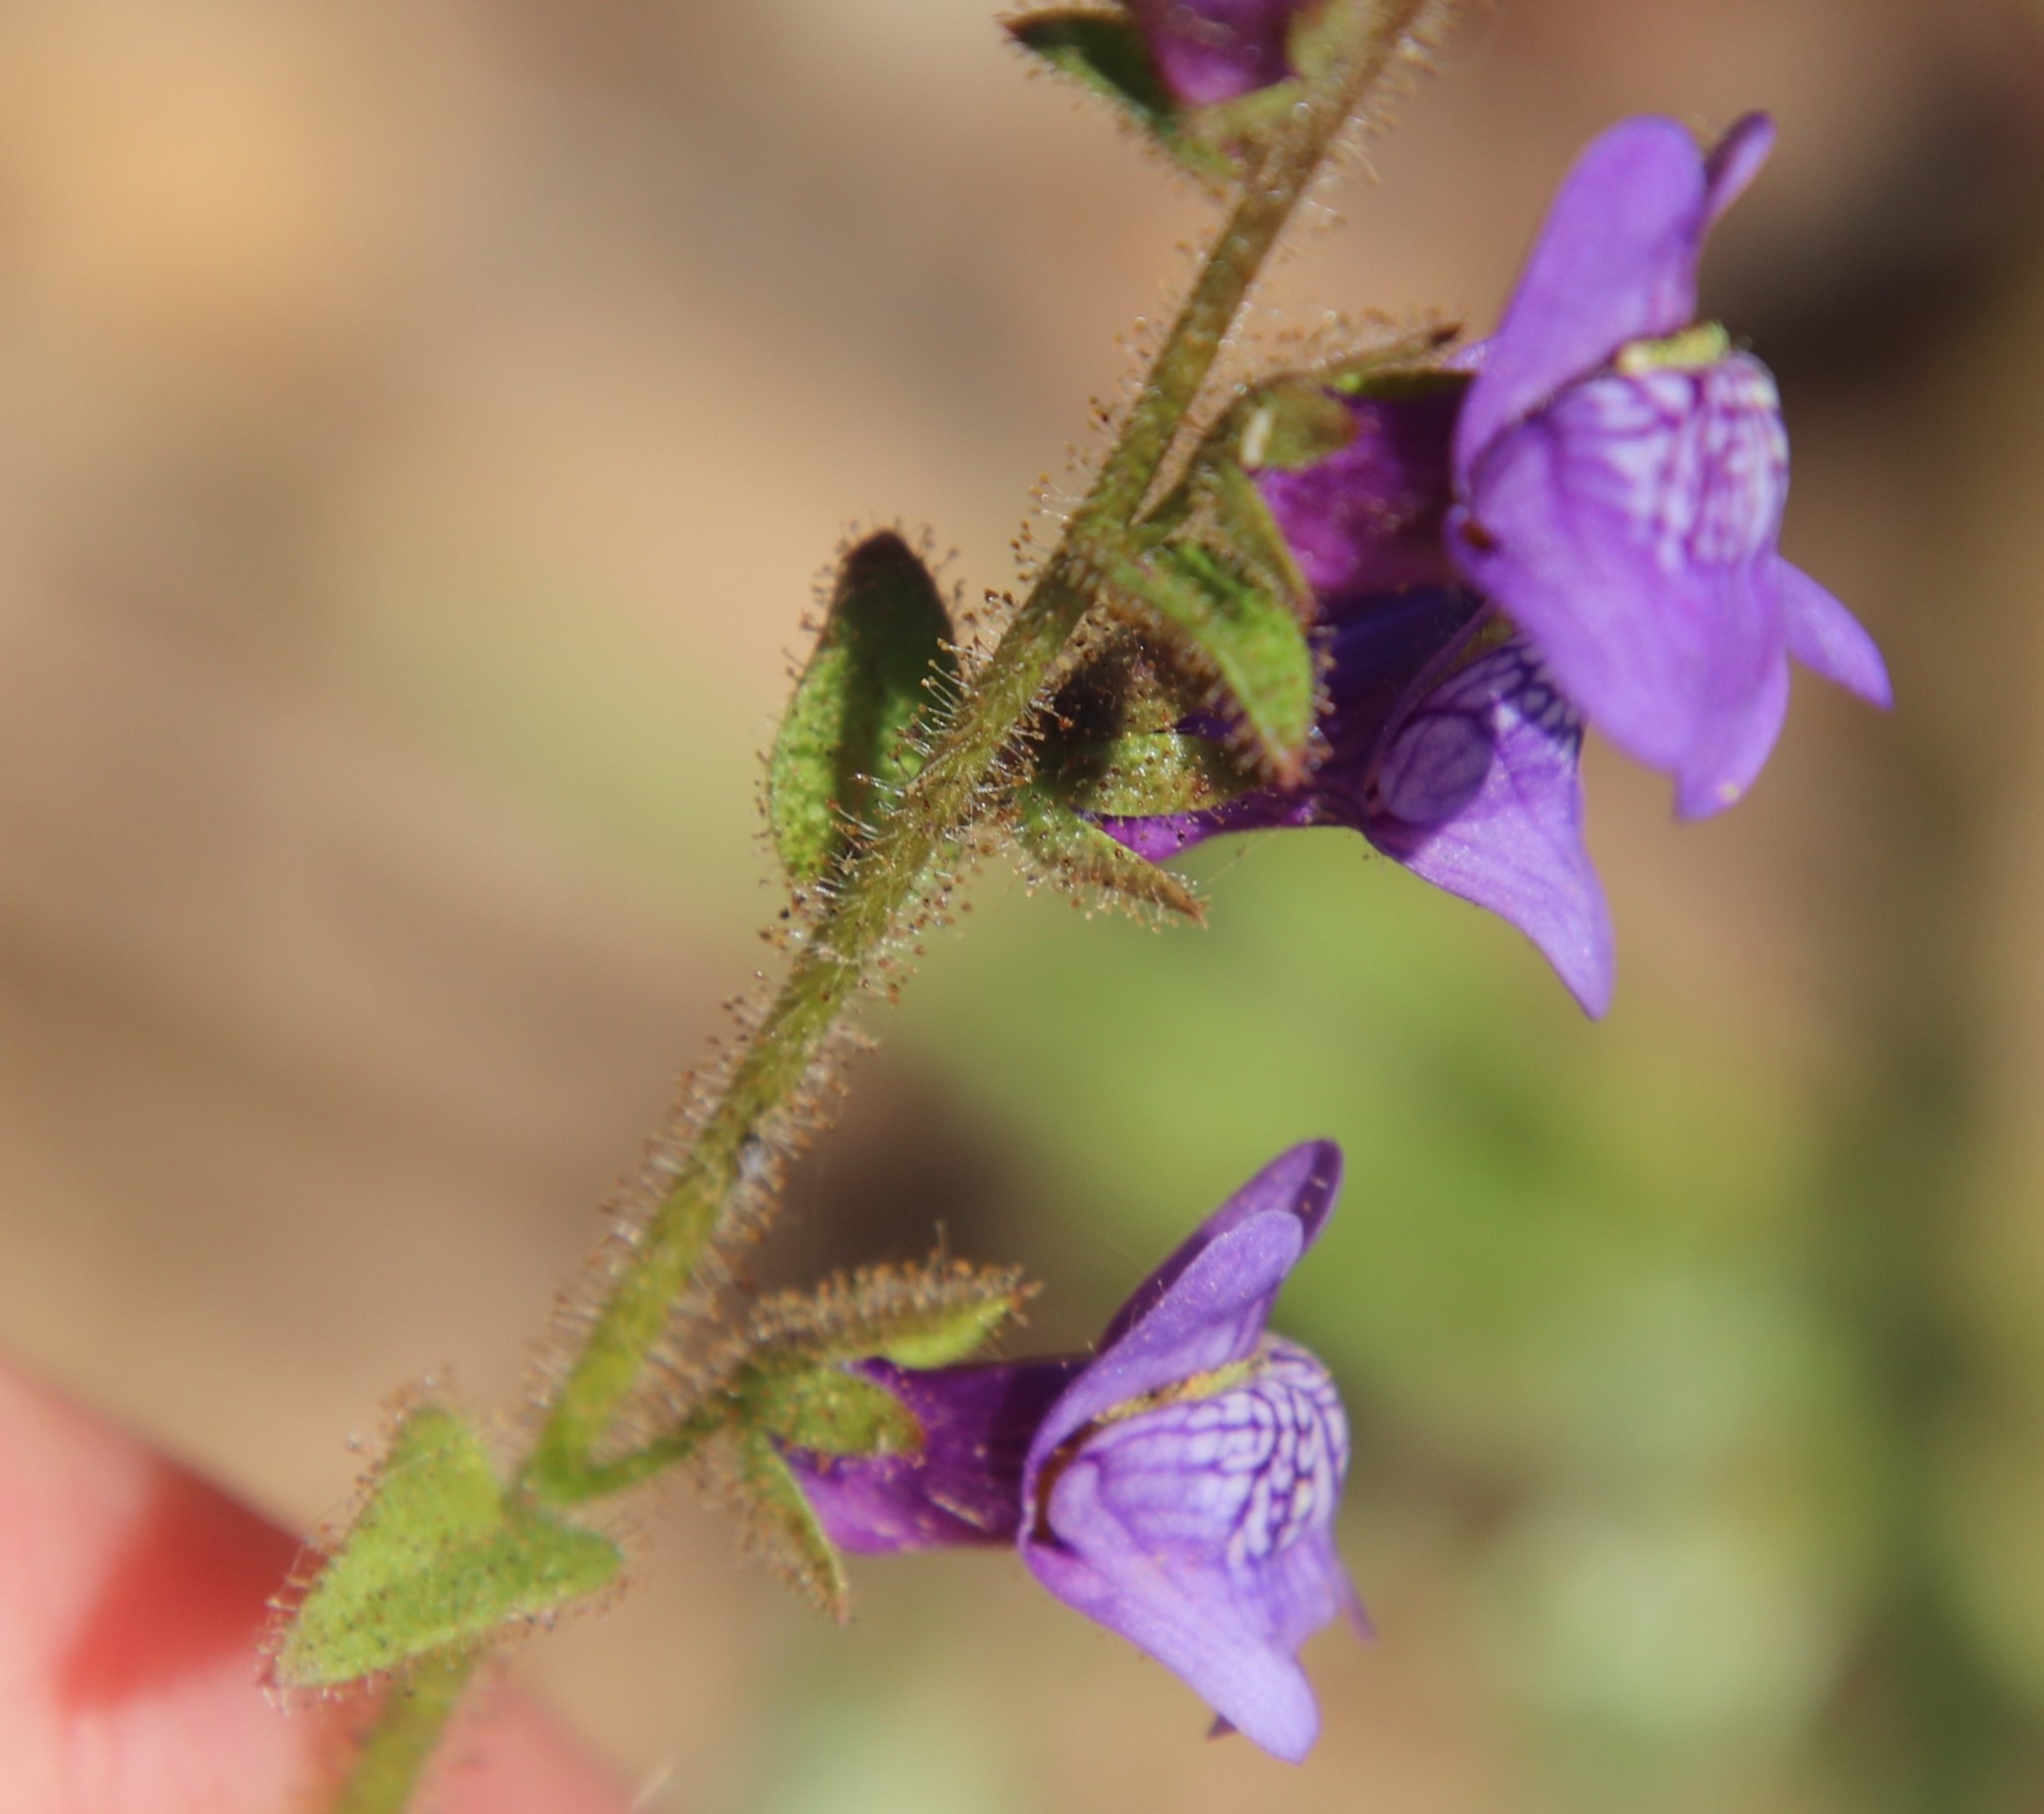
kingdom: Plantae
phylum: Tracheophyta
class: Magnoliopsida
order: Lamiales
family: Plantaginaceae
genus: Sairocarpus
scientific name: Sairocarpus nuttallianus
